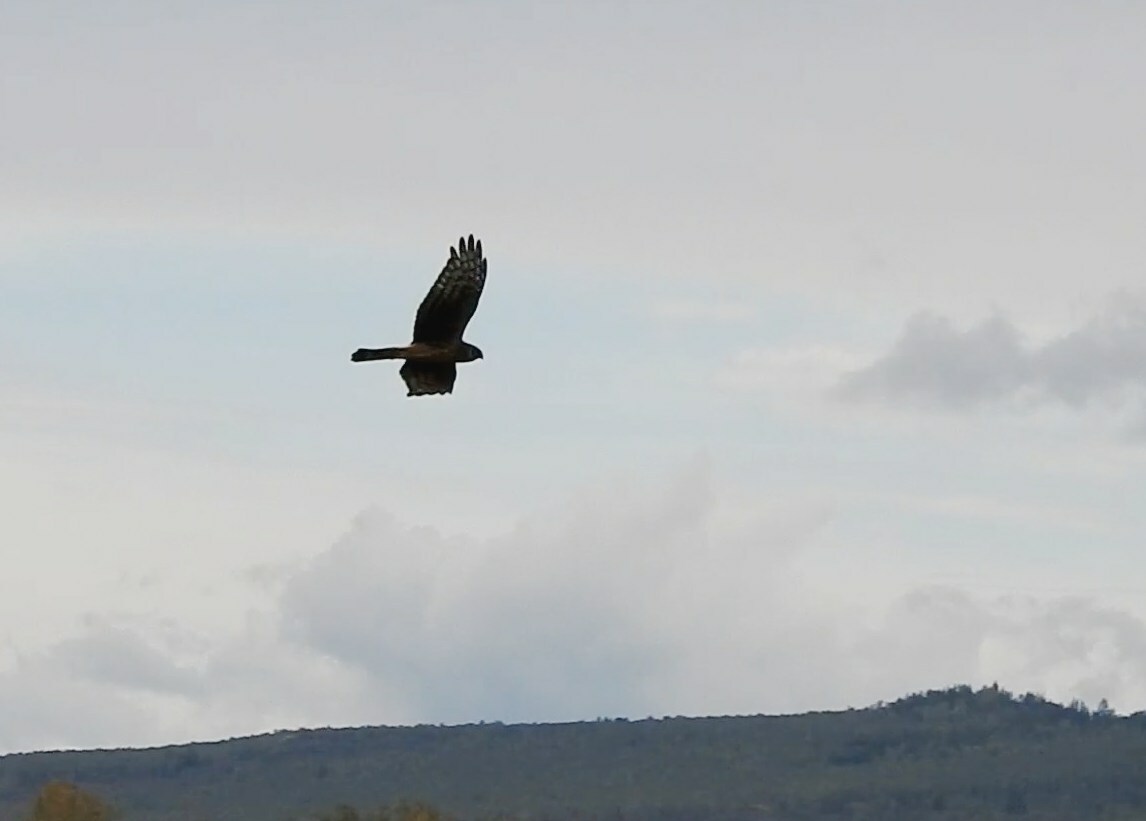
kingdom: Animalia
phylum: Chordata
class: Aves
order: Accipitriformes
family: Accipitridae
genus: Circus
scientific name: Circus cyaneus
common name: Hen harrier
